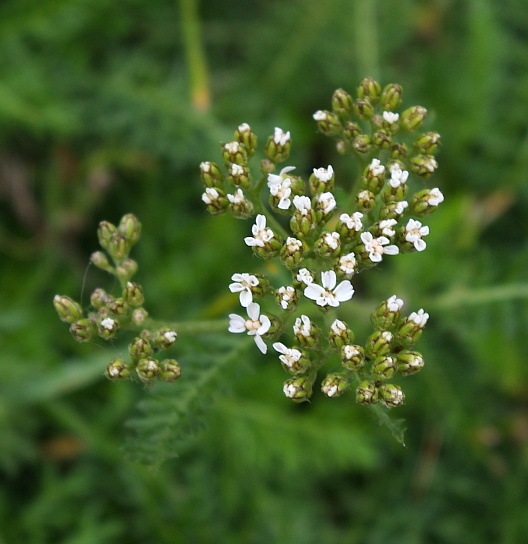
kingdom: Plantae
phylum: Tracheophyta
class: Magnoliopsida
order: Asterales
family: Asteraceae
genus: Achillea
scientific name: Achillea millefolium
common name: Yarrow
